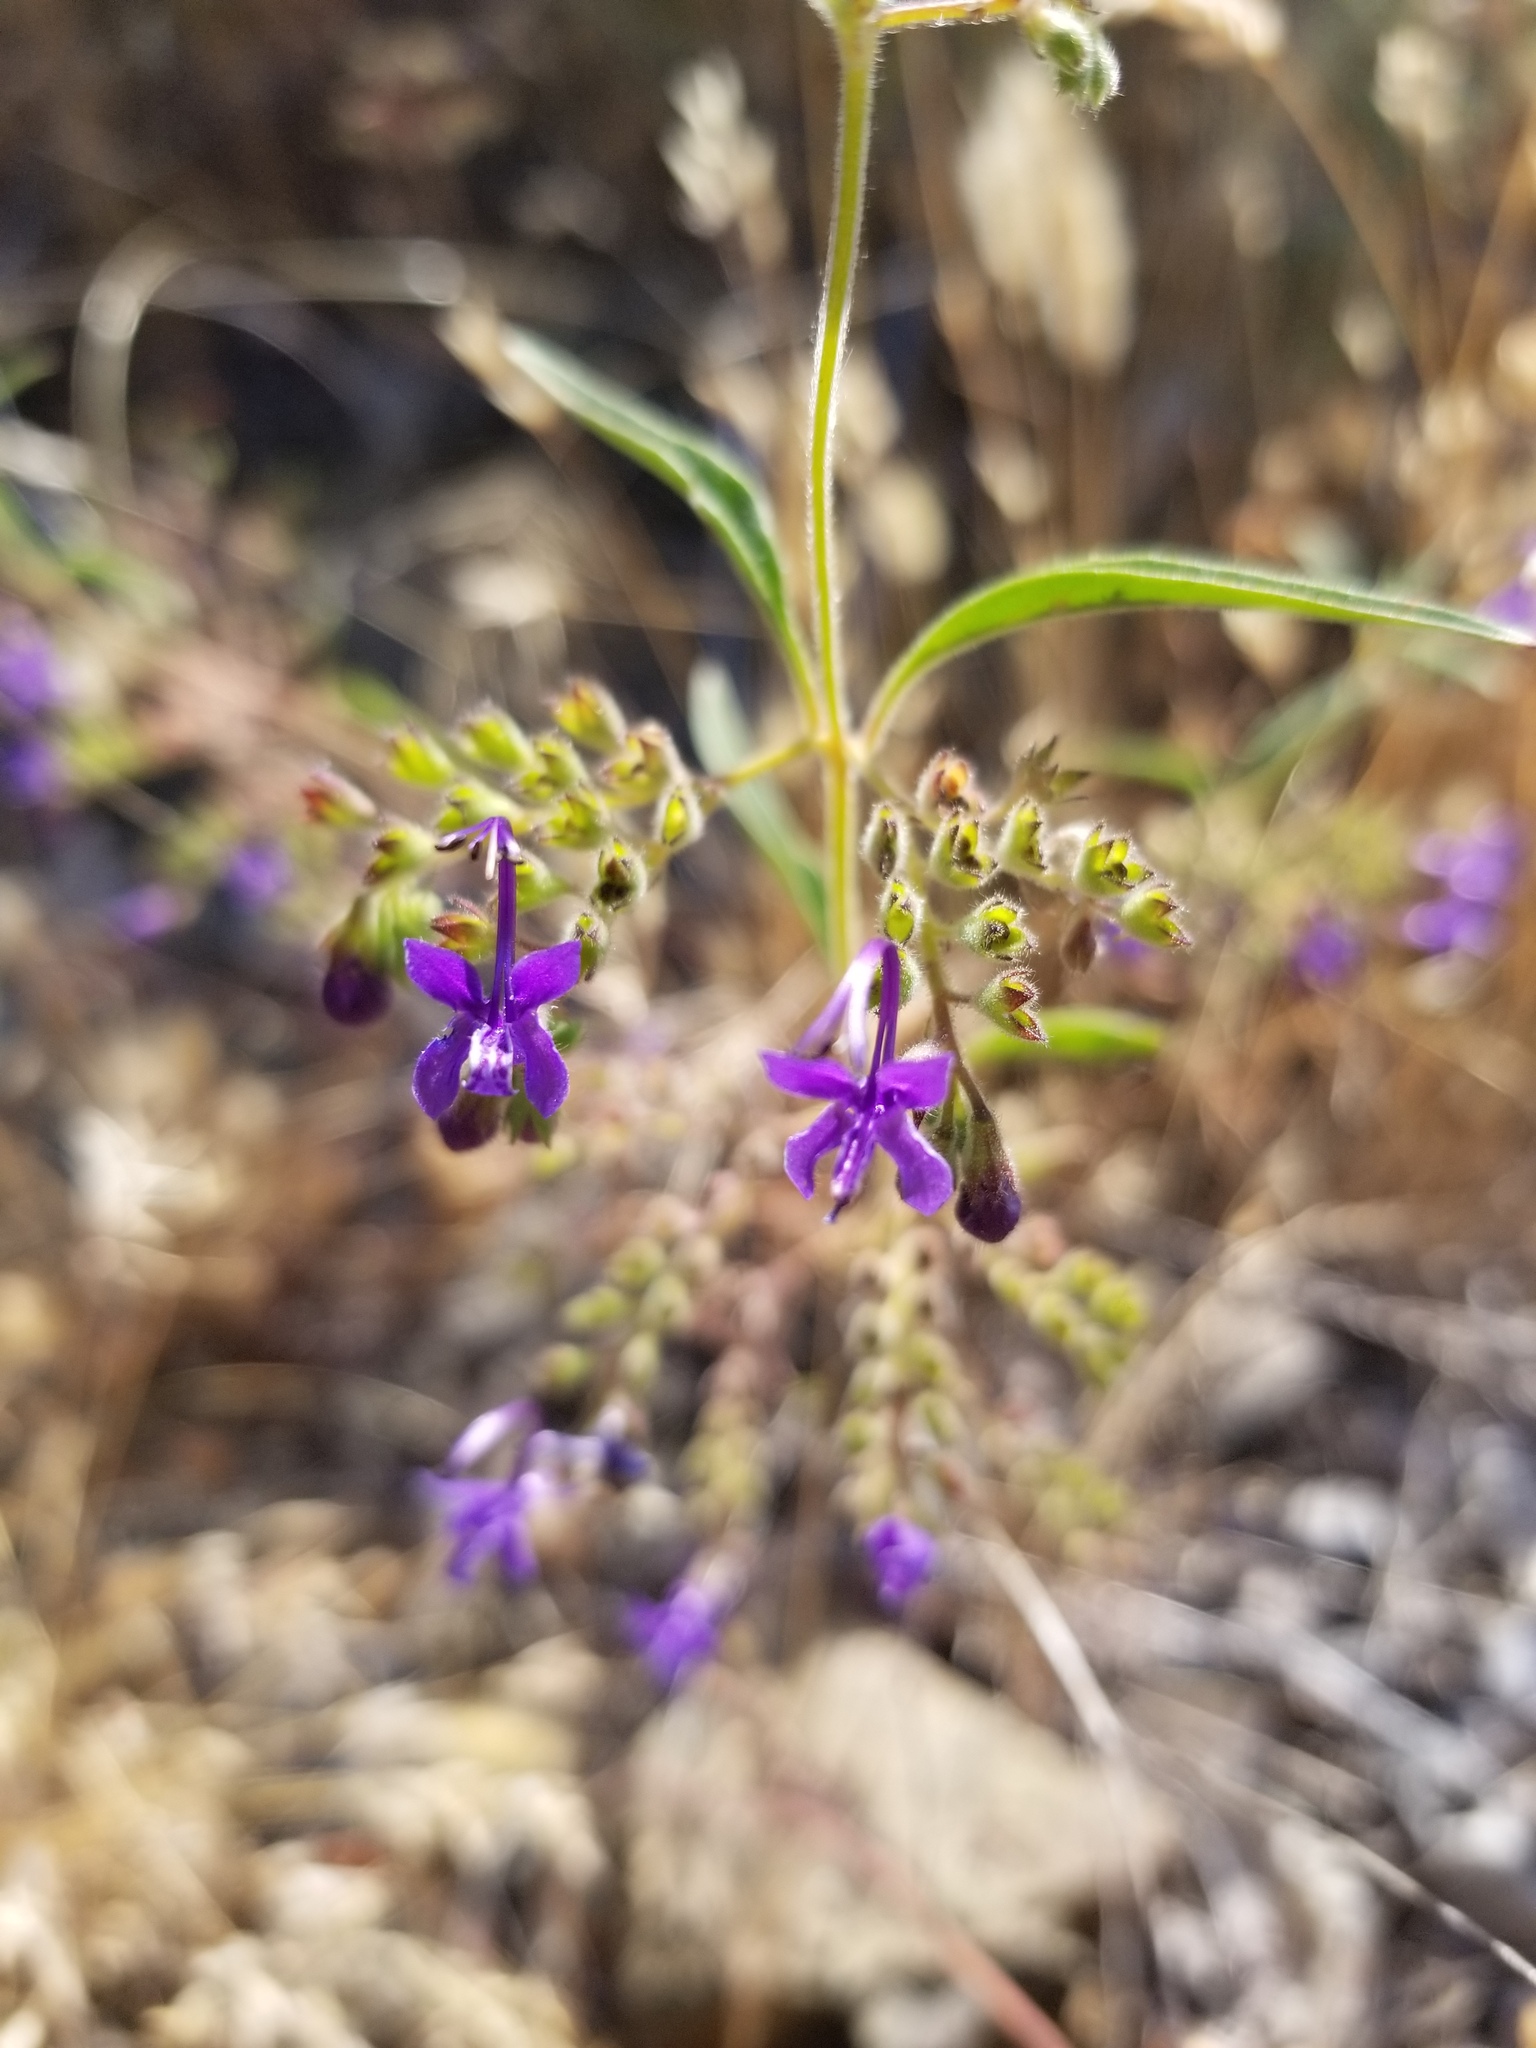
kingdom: Plantae
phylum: Tracheophyta
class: Magnoliopsida
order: Lamiales
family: Lamiaceae
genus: Trichostema
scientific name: Trichostema laxum
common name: Turpentine weed
